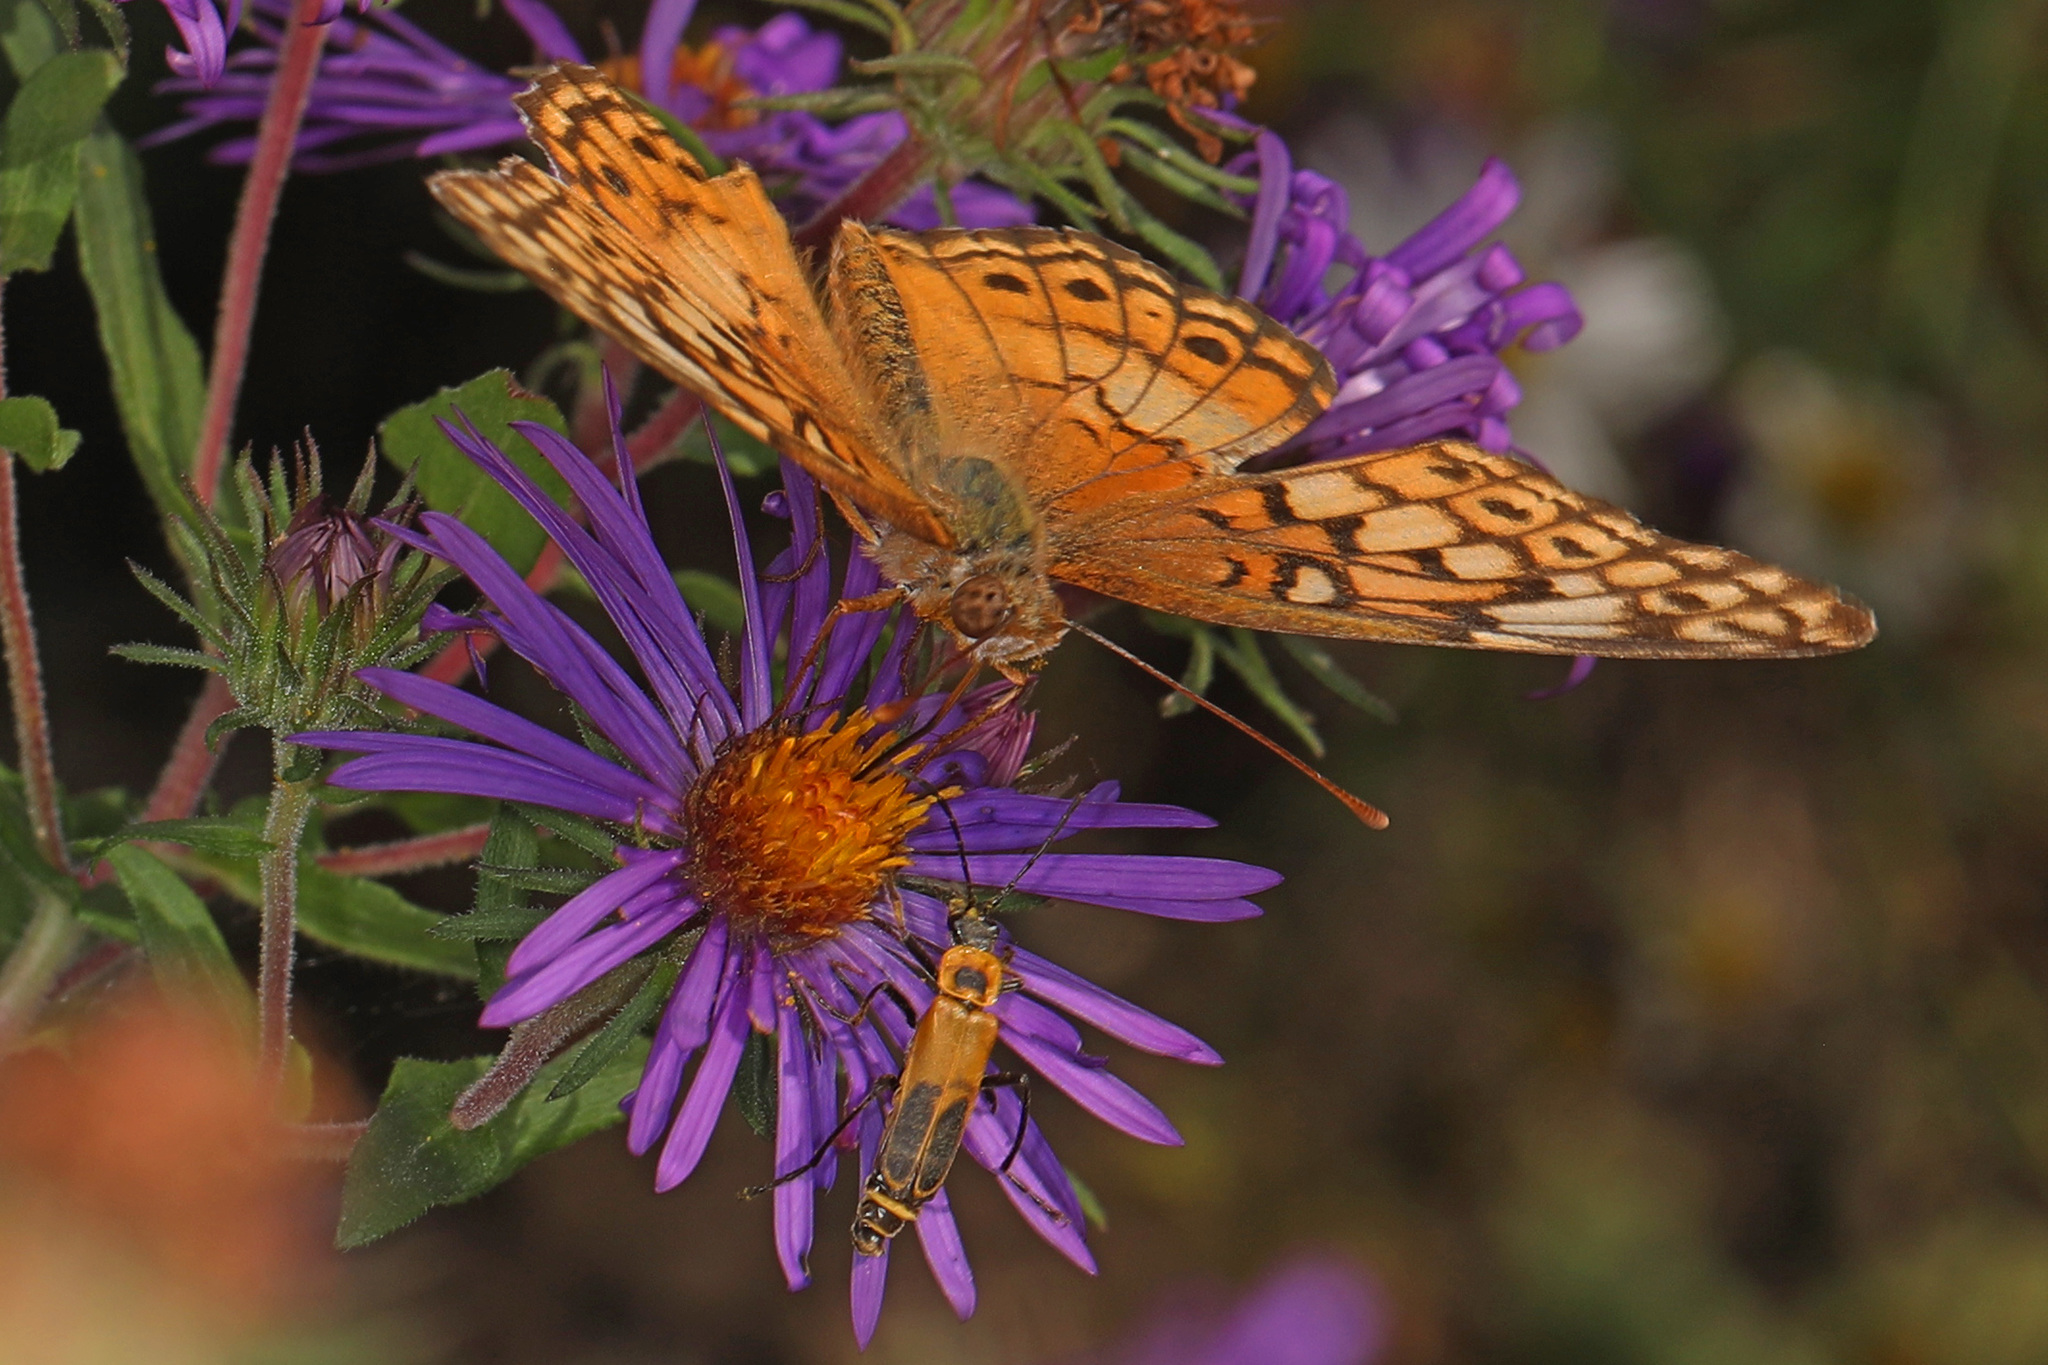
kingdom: Animalia
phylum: Arthropoda
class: Insecta
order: Lepidoptera
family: Nymphalidae
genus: Euptoieta
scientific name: Euptoieta claudia
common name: Variegated fritillary
